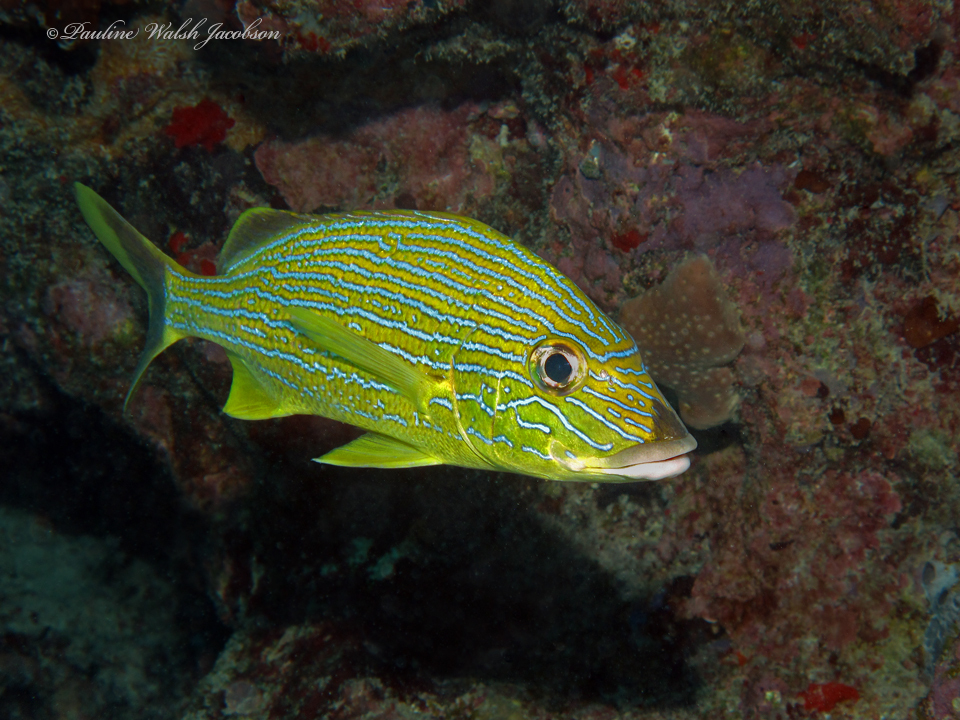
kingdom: Animalia
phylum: Chordata
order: Perciformes
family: Haemulidae
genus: Haemulon
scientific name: Haemulon sciurus
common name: Bluestriped grunt
